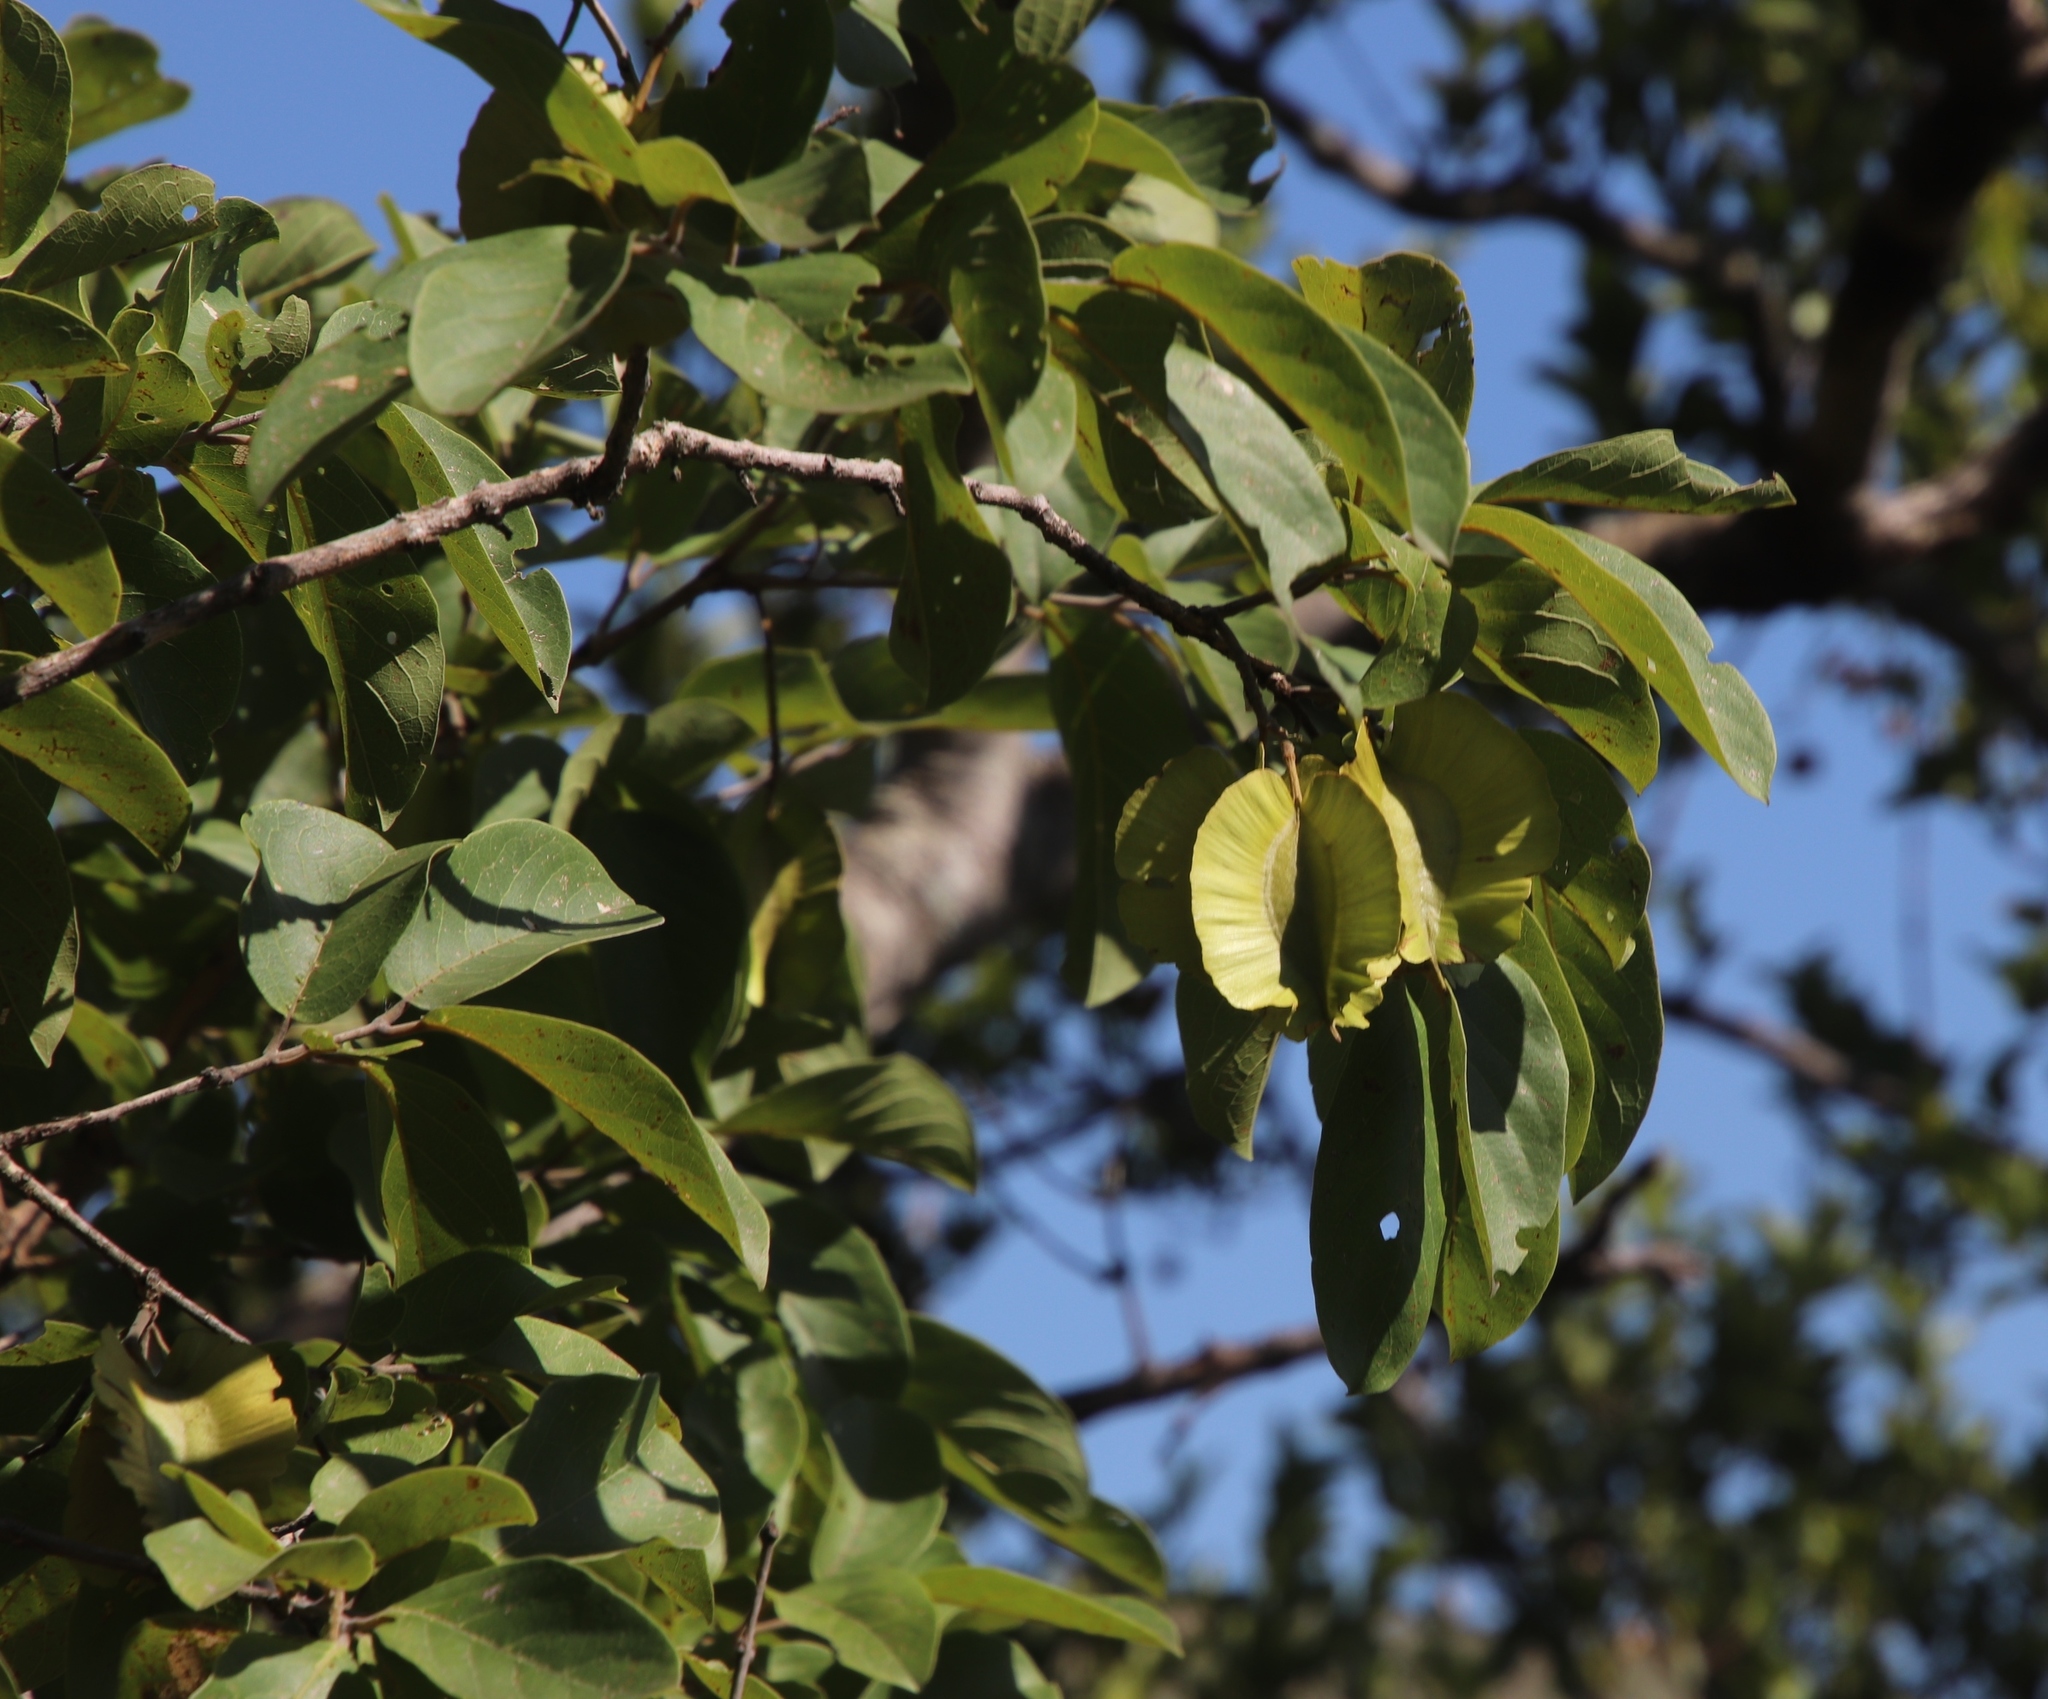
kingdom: Plantae
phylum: Tracheophyta
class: Magnoliopsida
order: Myrtales
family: Combretaceae
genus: Combretum
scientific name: Combretum zeyheri
